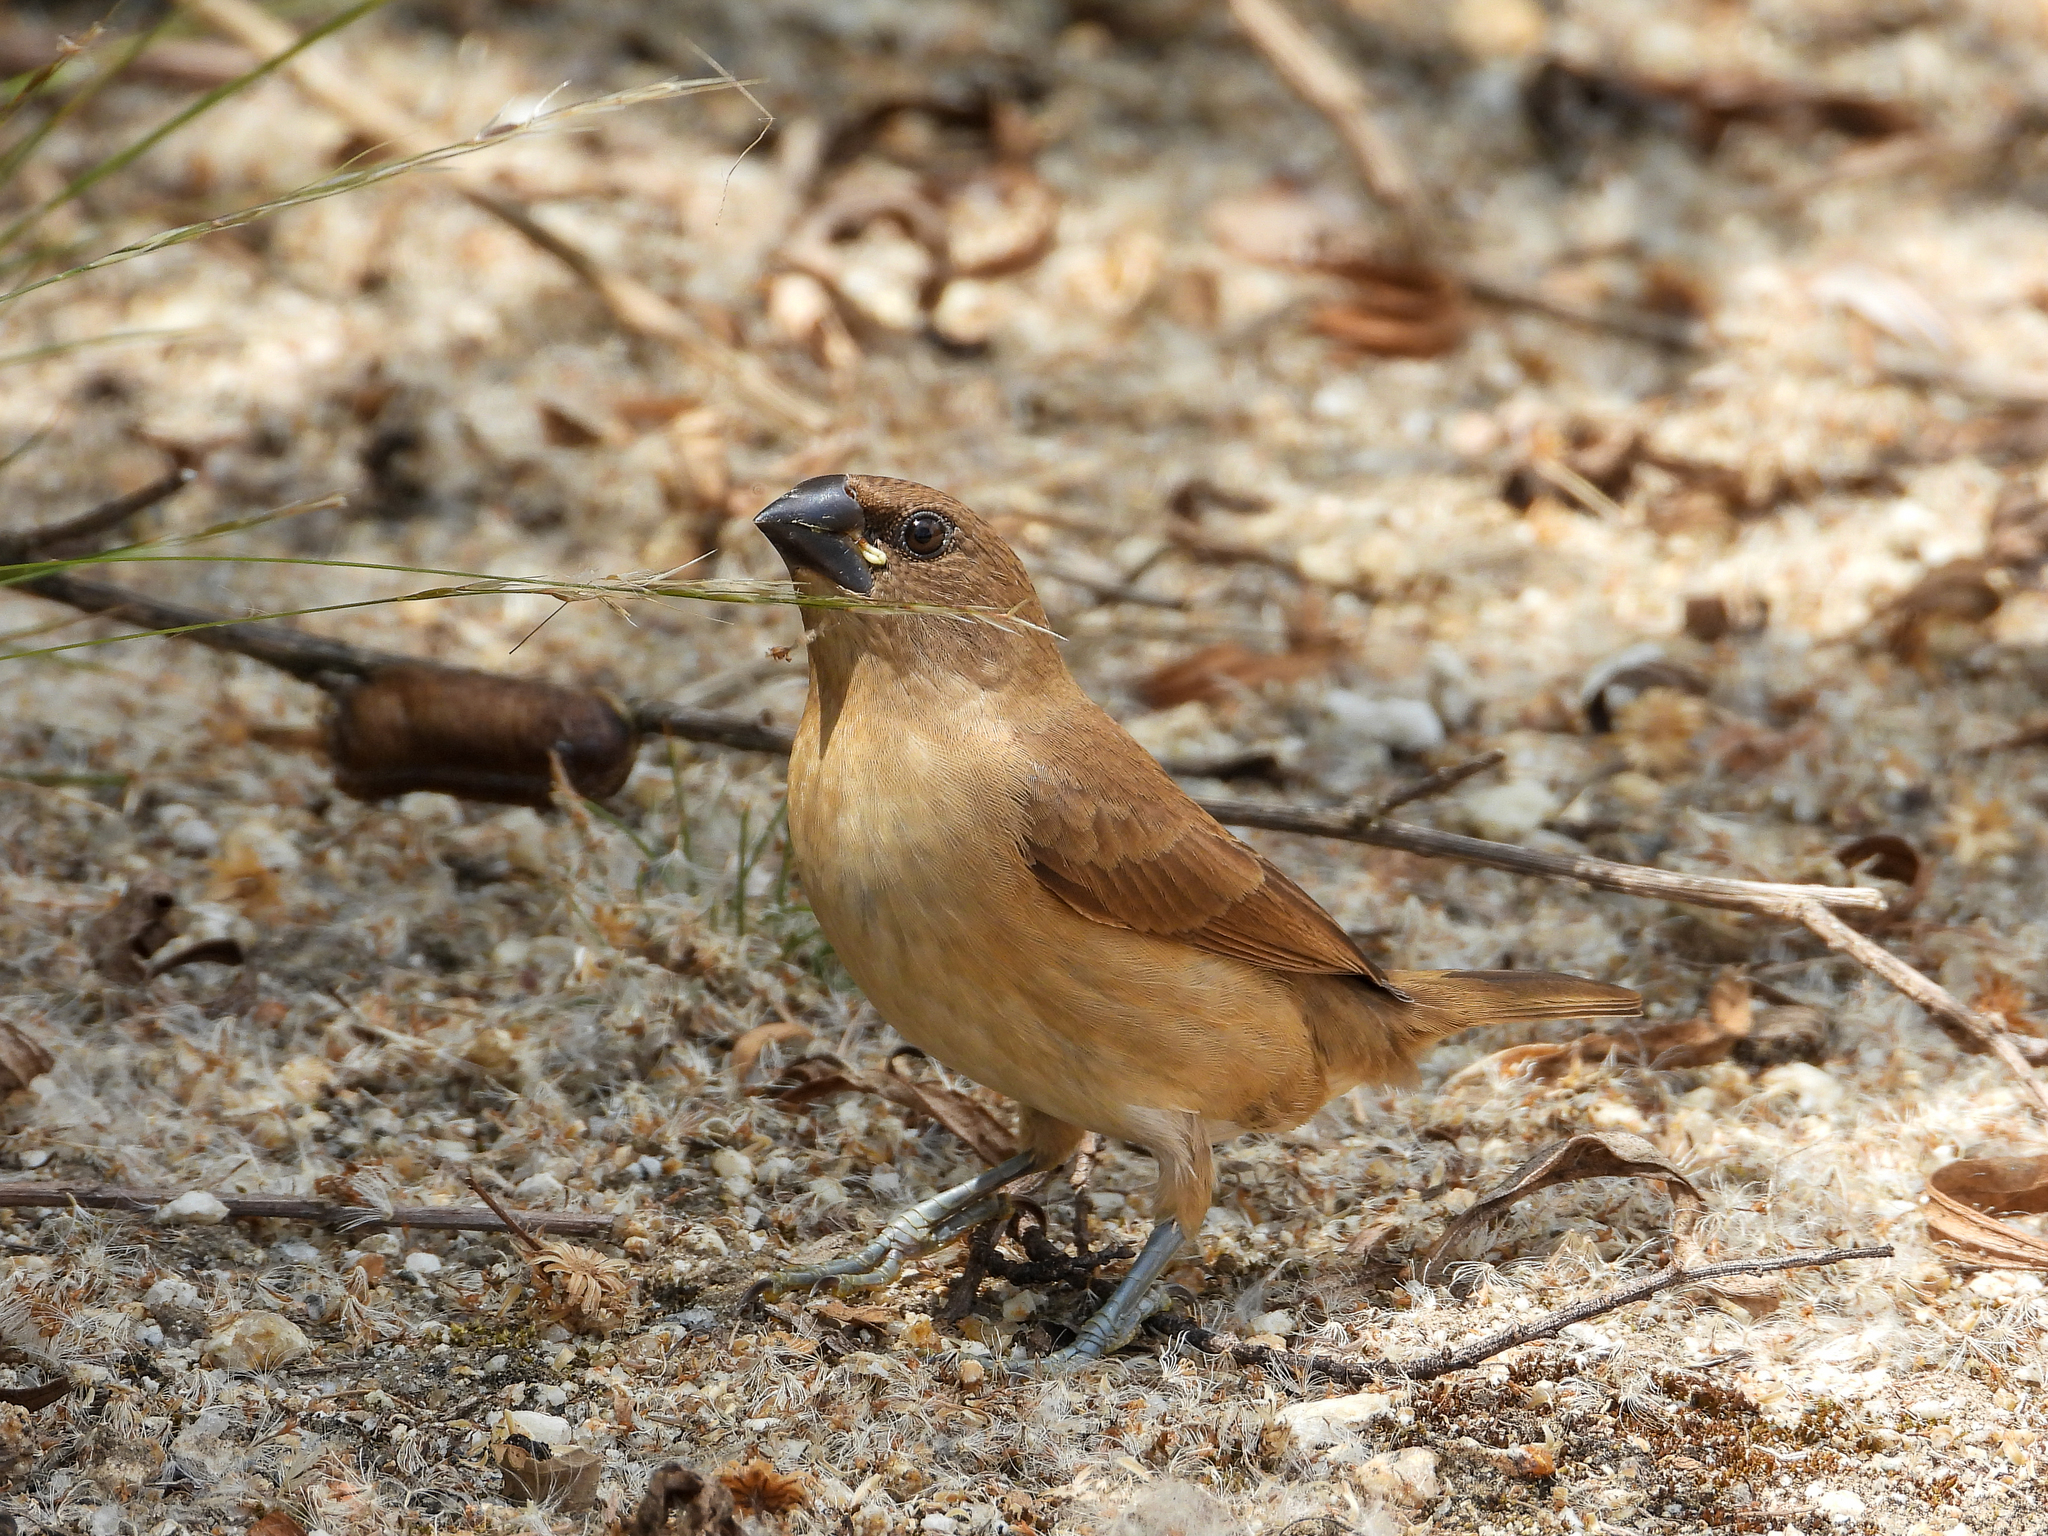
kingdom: Animalia
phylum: Chordata
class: Aves
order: Passeriformes
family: Estrildidae
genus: Lonchura
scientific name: Lonchura punctulata
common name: Scaly-breasted munia
